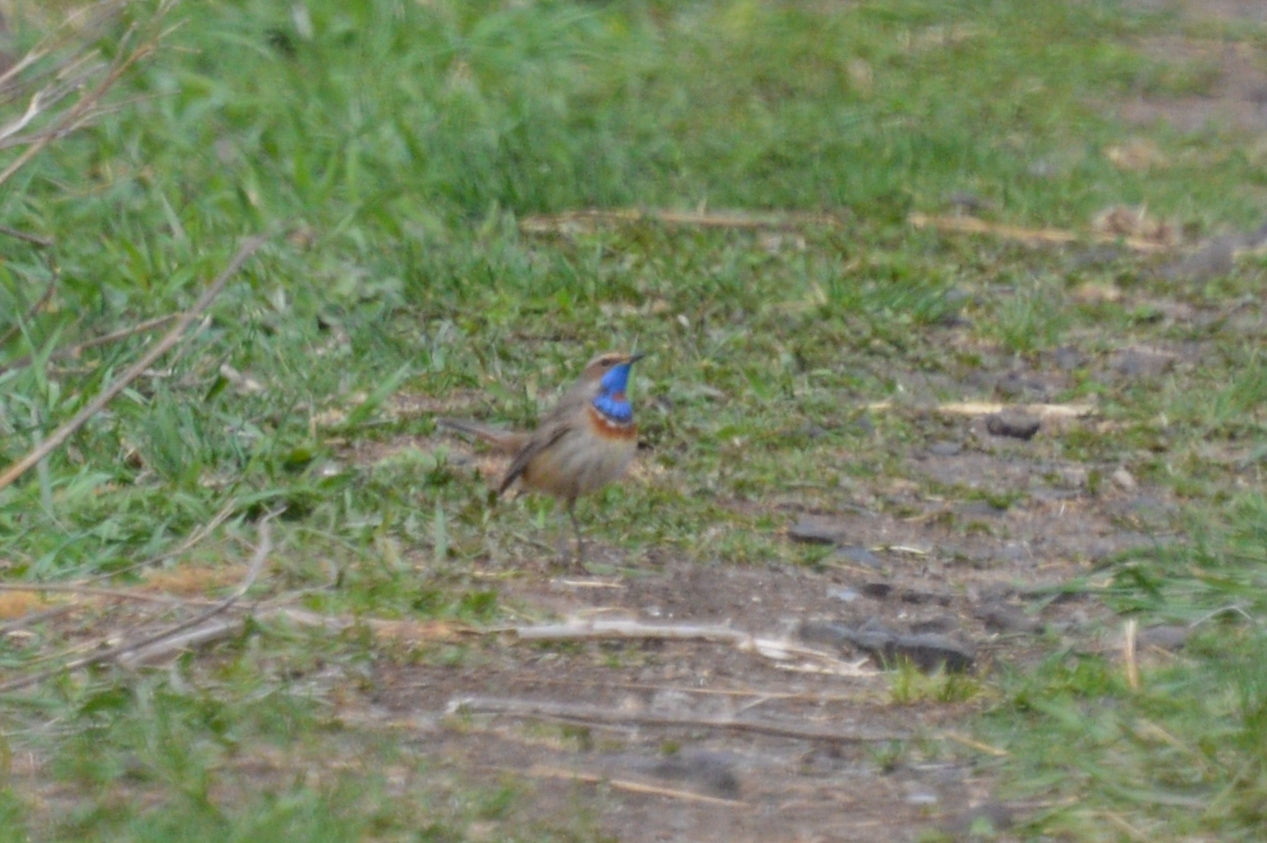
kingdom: Animalia
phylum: Chordata
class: Aves
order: Passeriformes
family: Muscicapidae
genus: Luscinia
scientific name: Luscinia svecica
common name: Bluethroat
